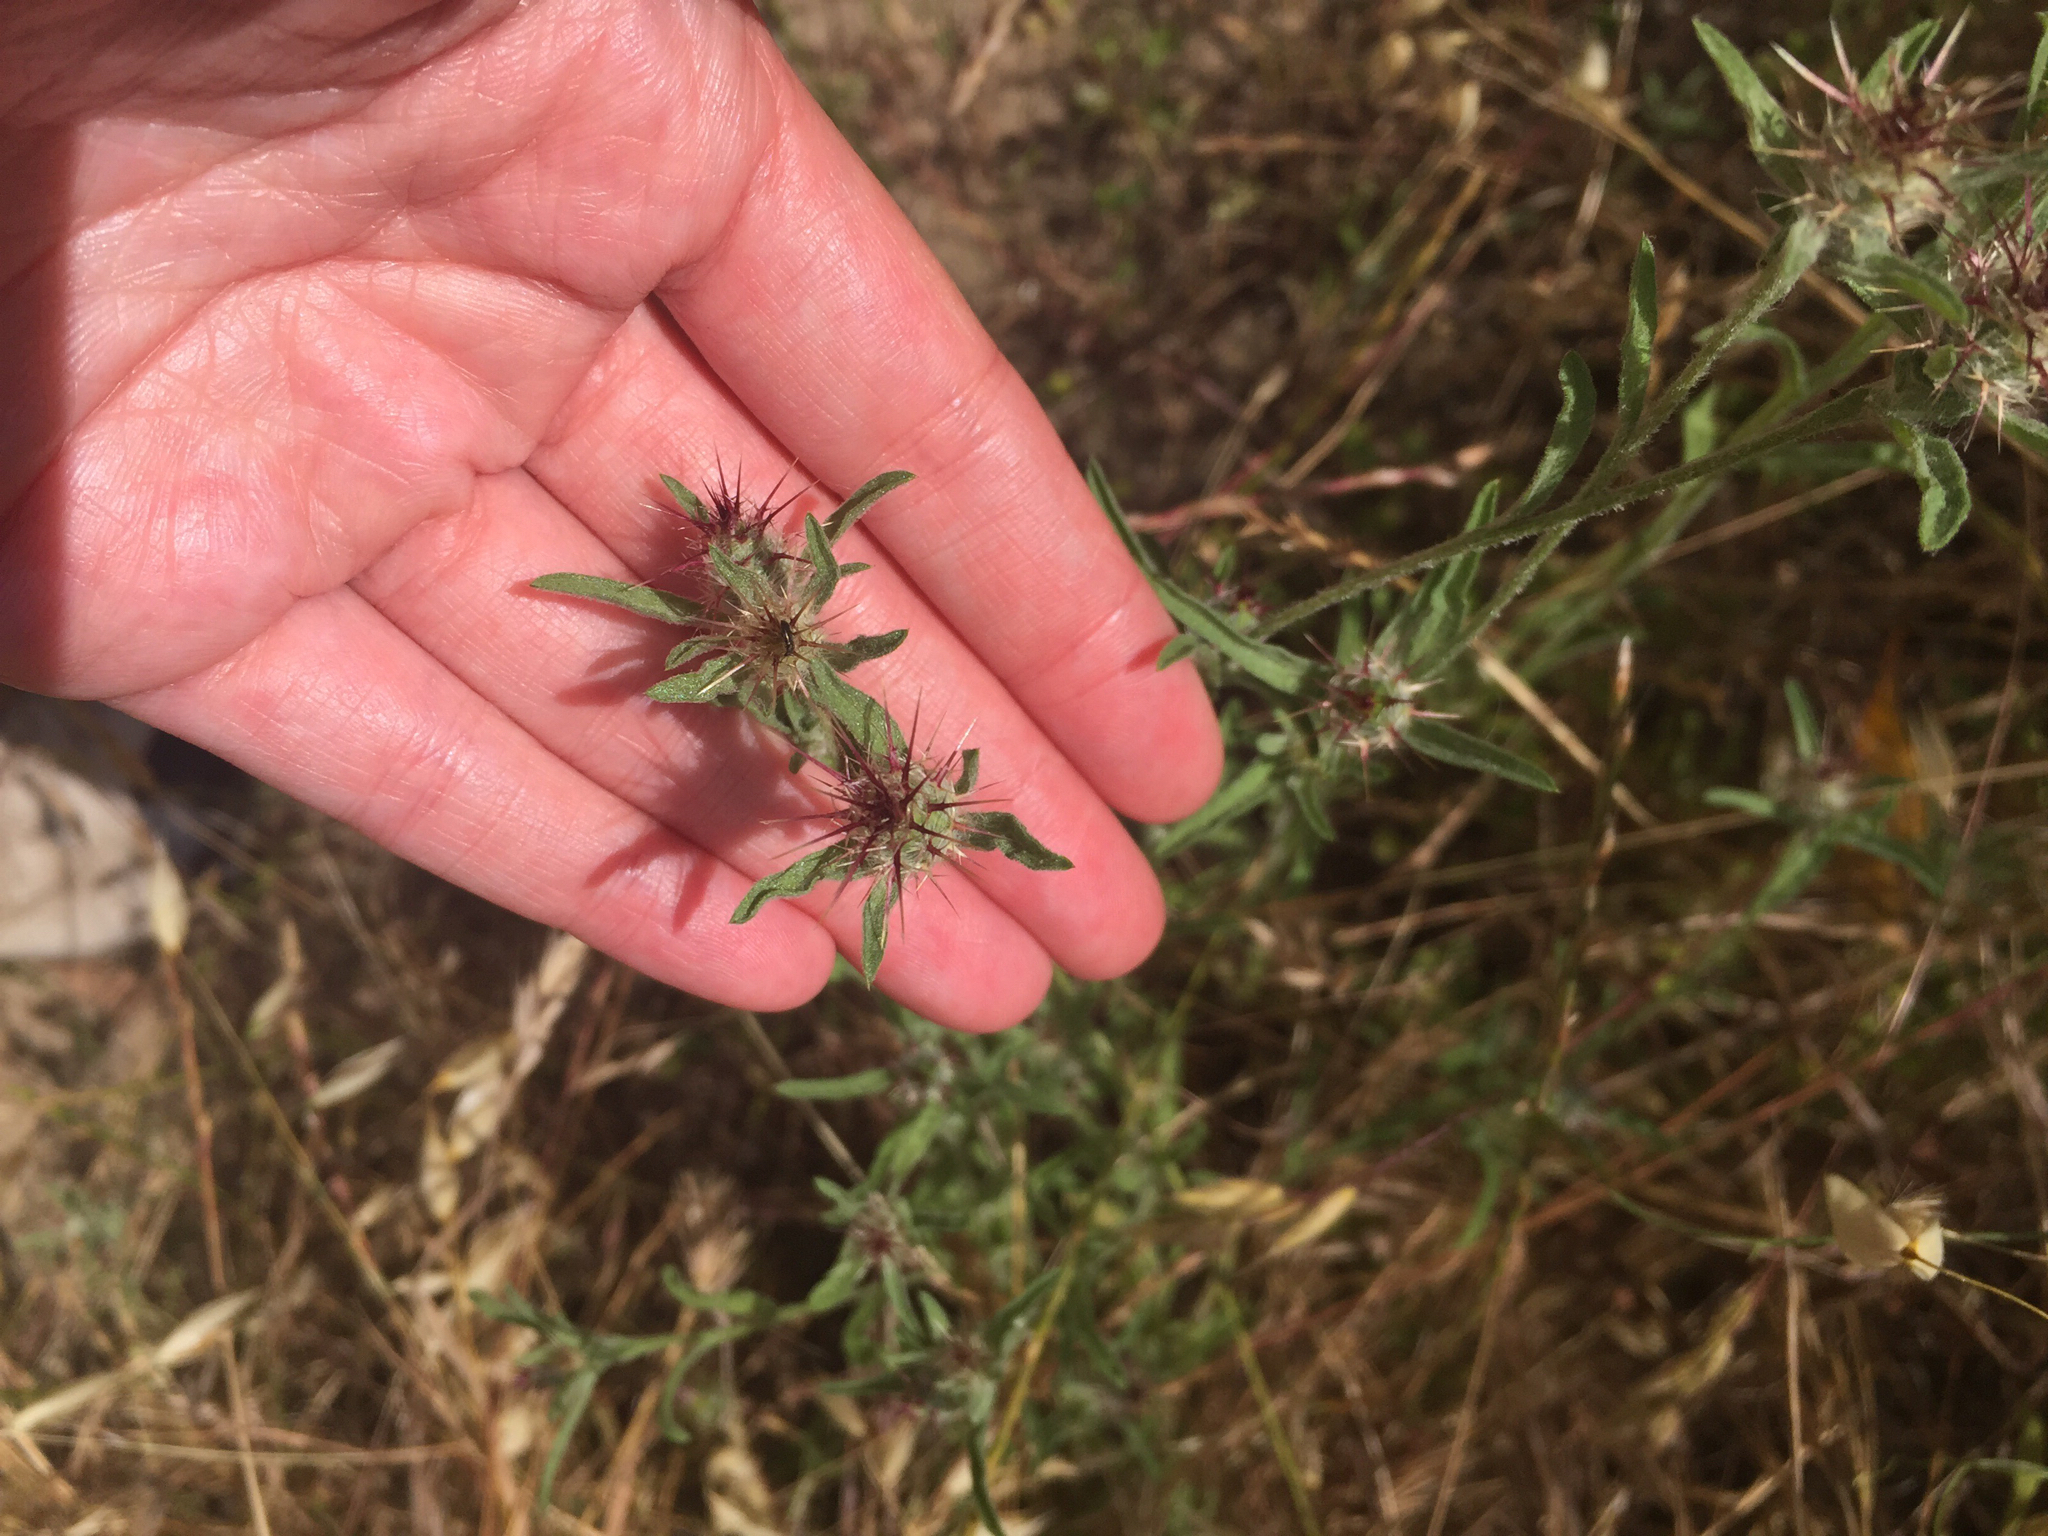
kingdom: Plantae
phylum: Tracheophyta
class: Magnoliopsida
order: Asterales
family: Asteraceae
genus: Centaurea
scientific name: Centaurea melitensis
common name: Maltese star-thistle
